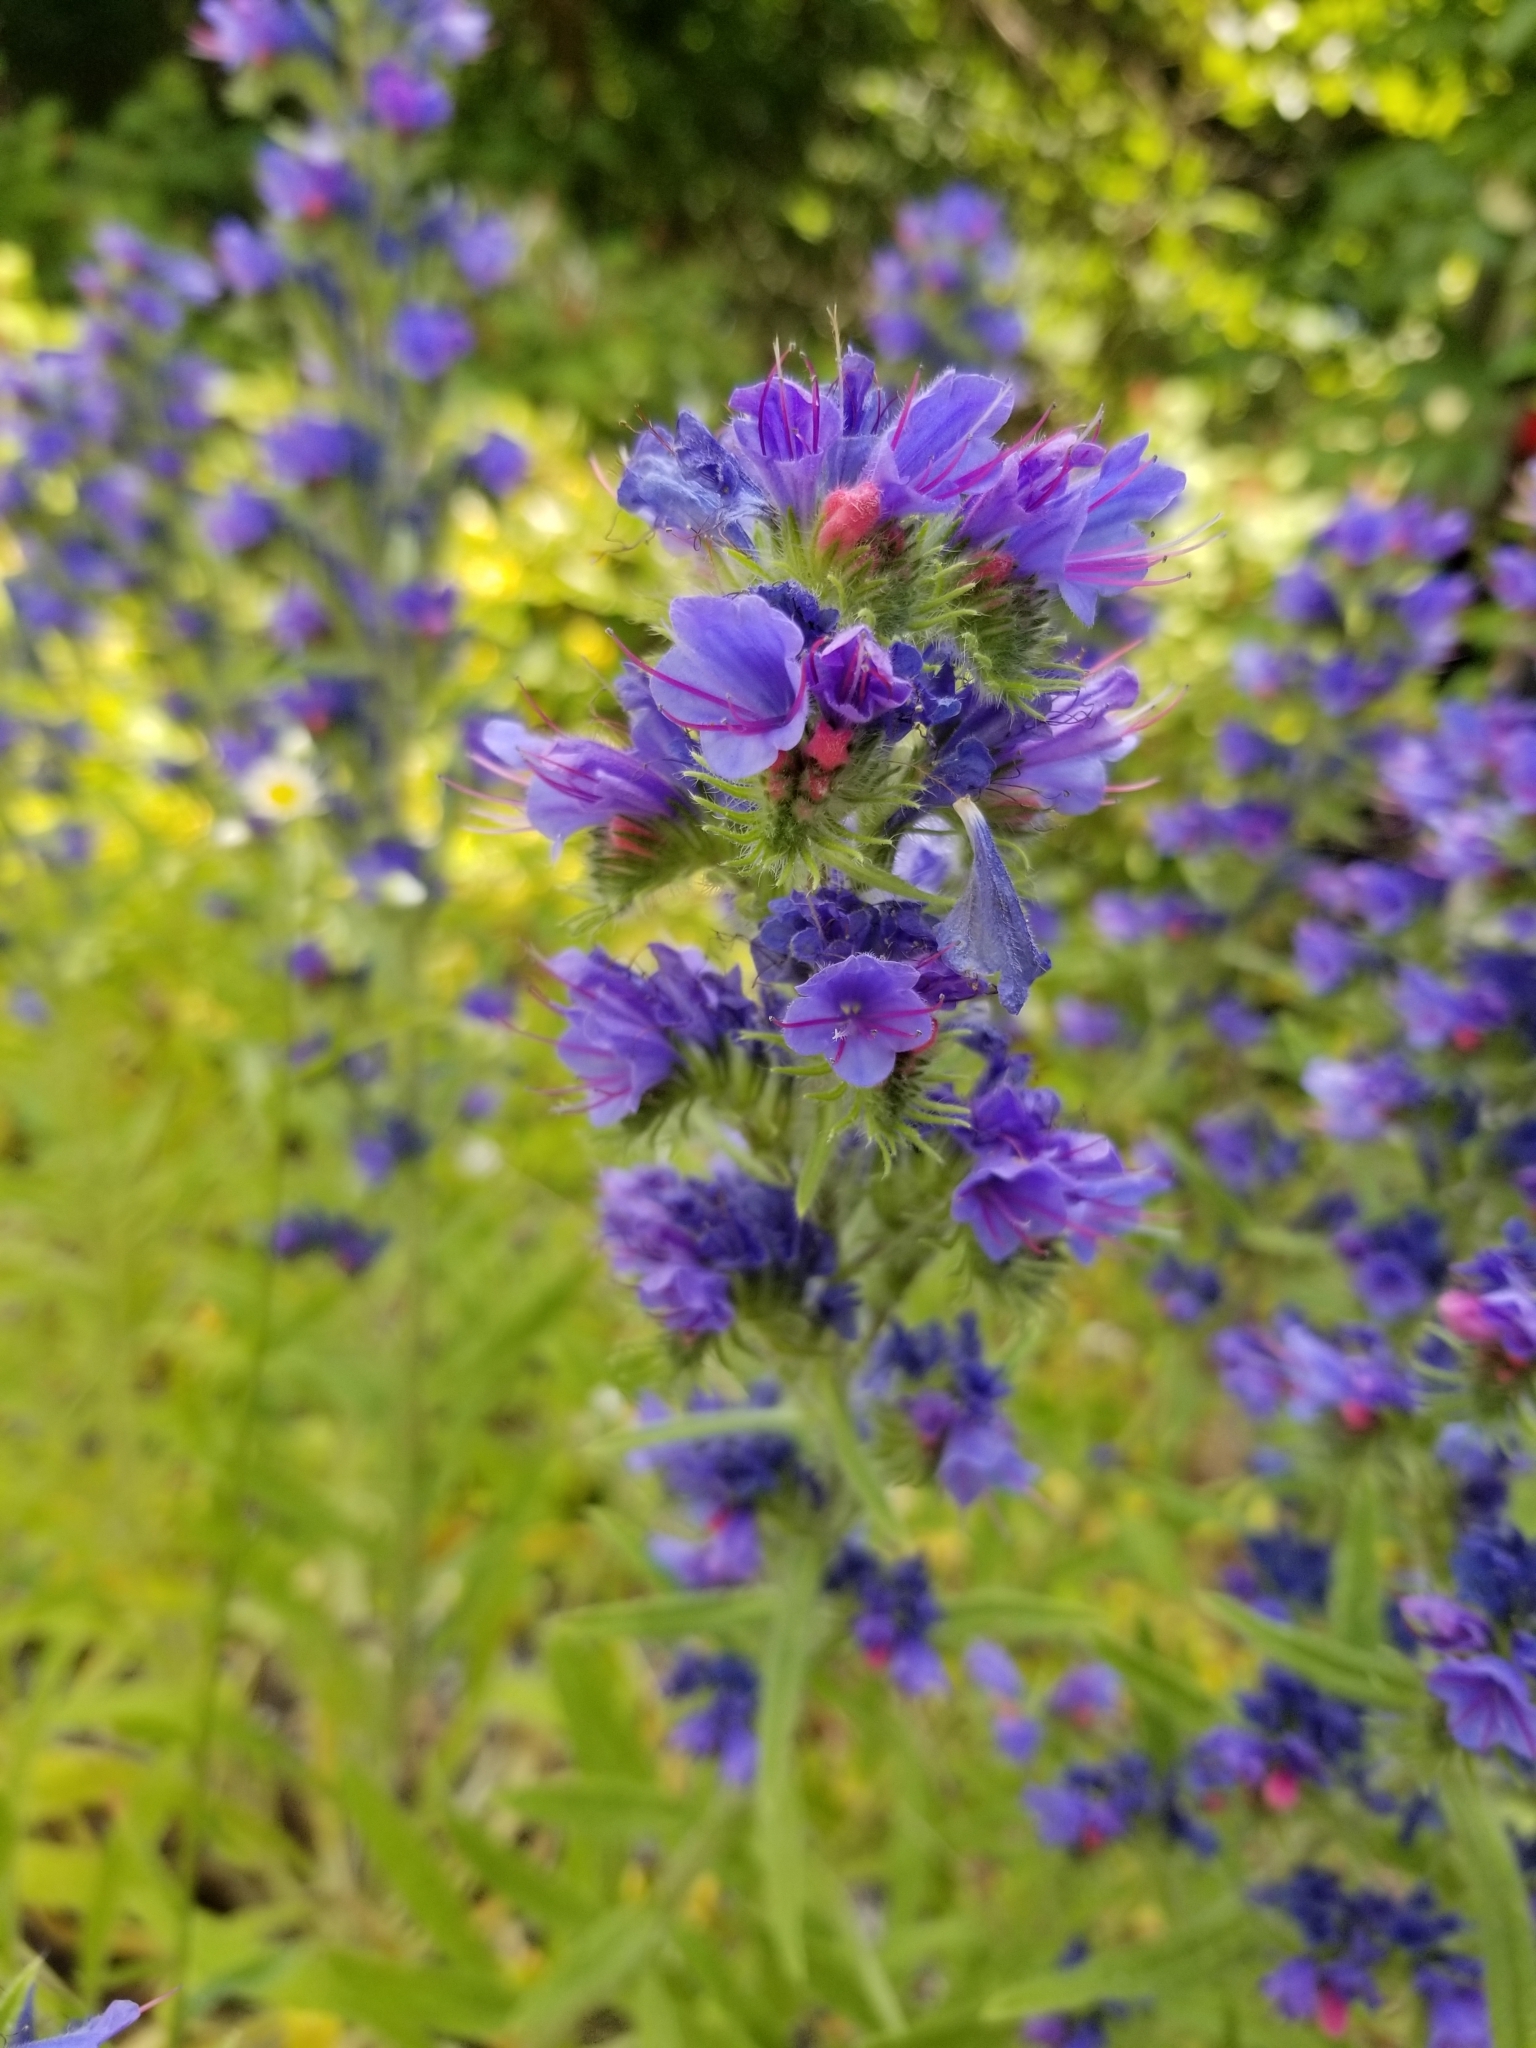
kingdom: Plantae
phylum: Tracheophyta
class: Magnoliopsida
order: Boraginales
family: Boraginaceae
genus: Echium
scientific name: Echium vulgare
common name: Common viper's bugloss
